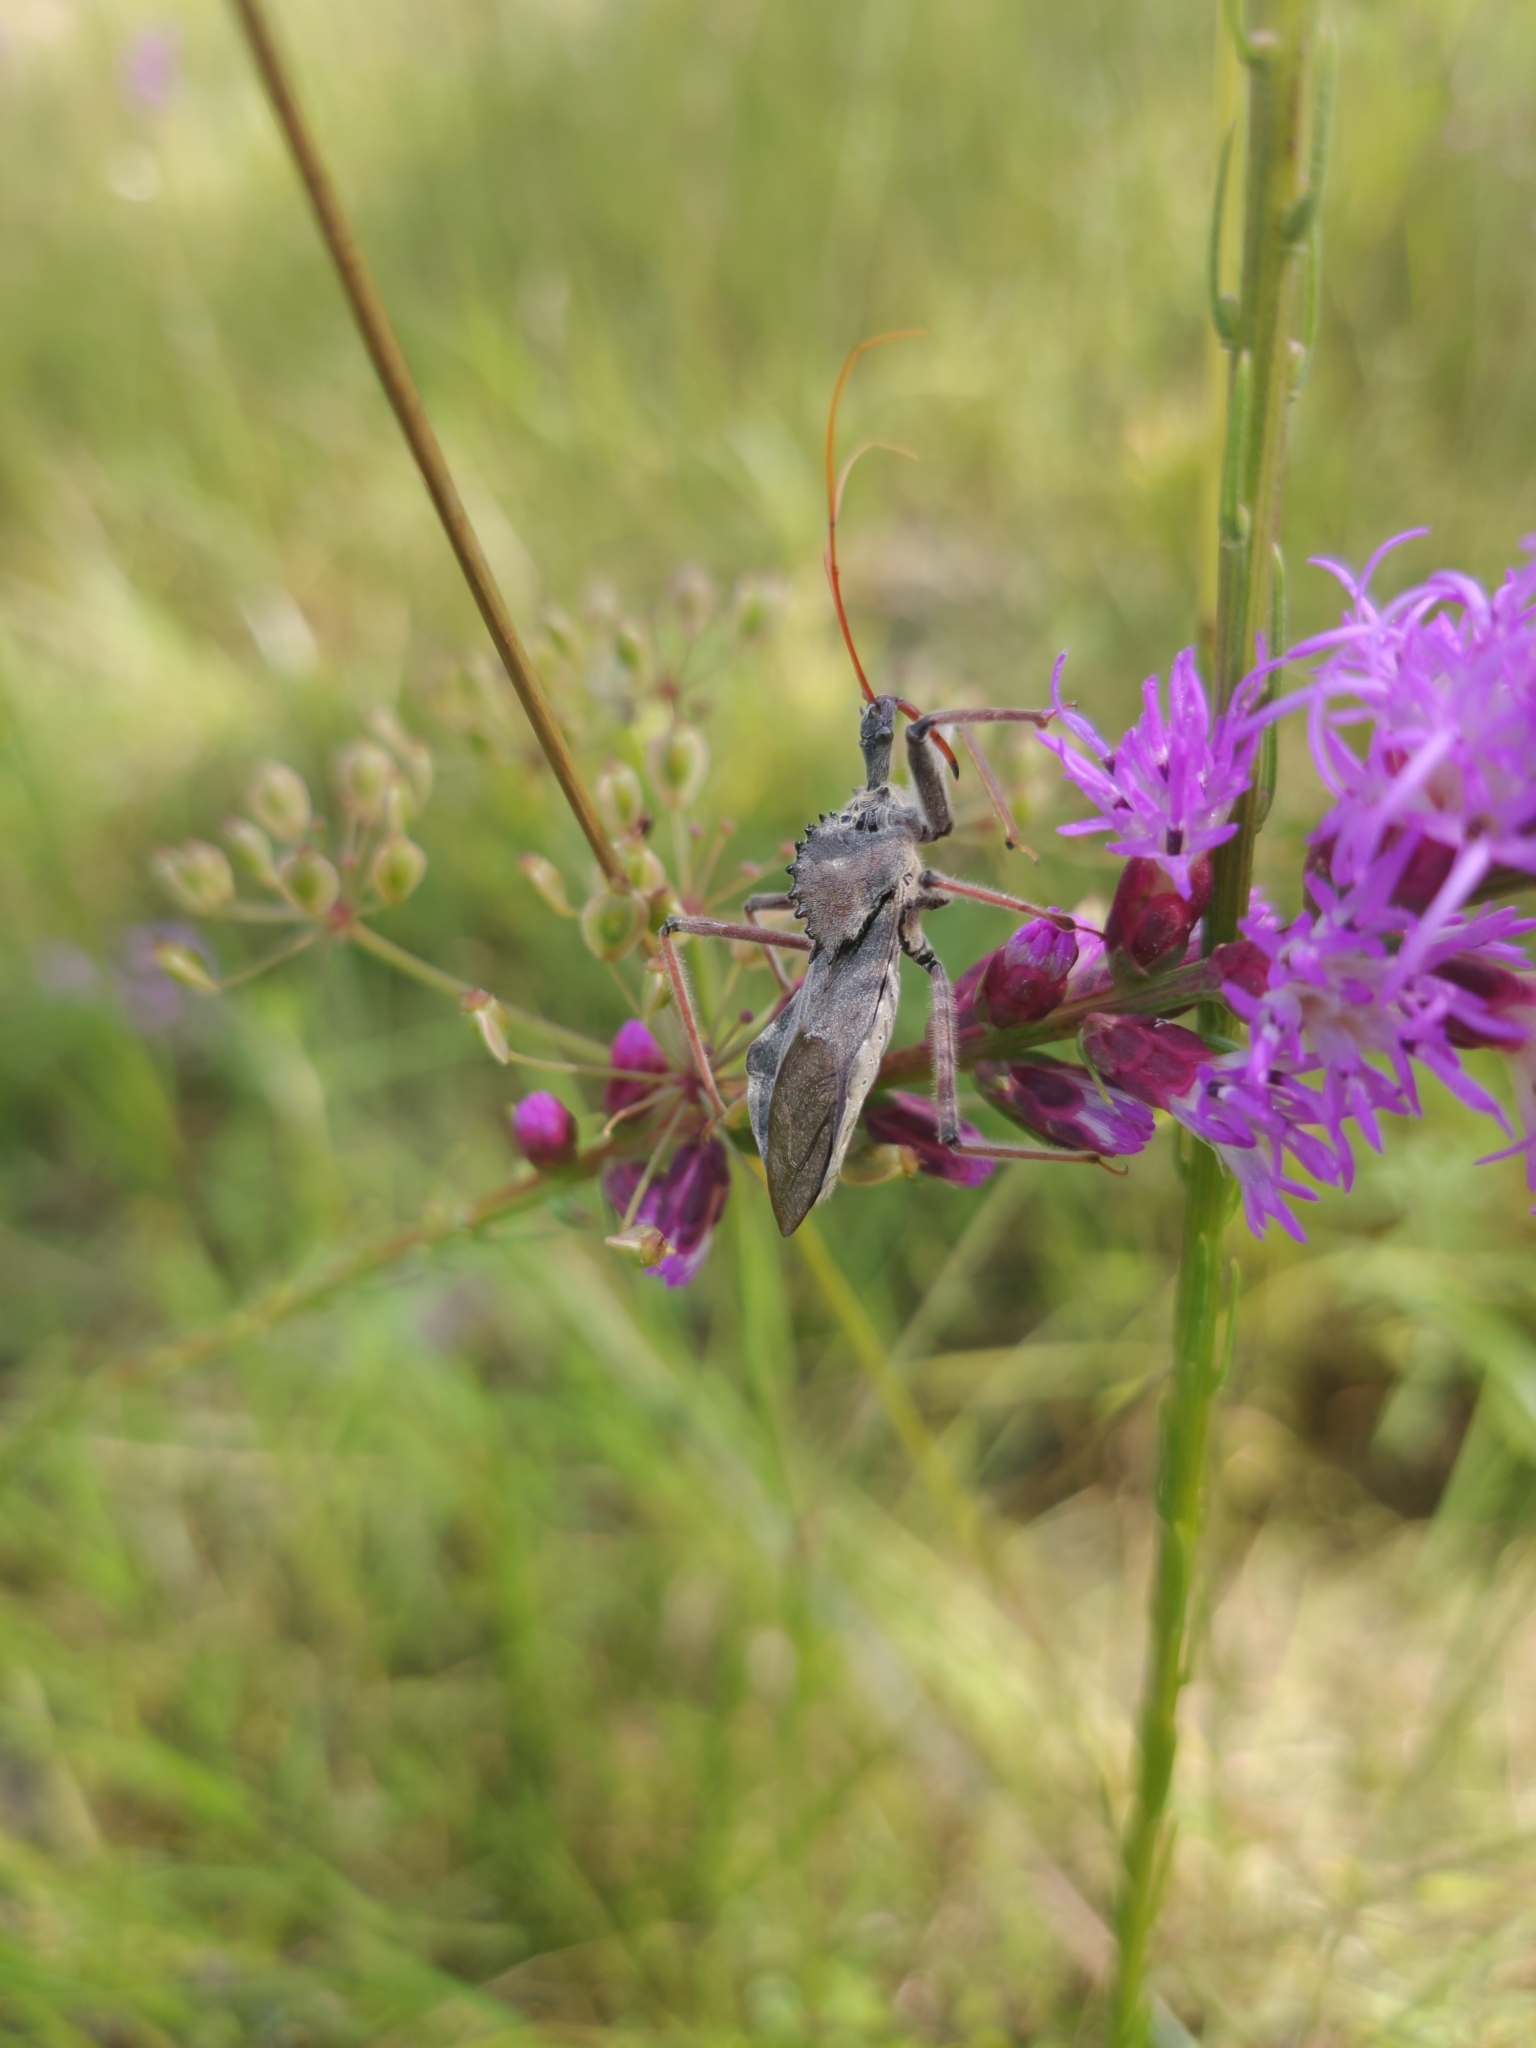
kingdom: Animalia
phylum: Arthropoda
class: Insecta
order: Hemiptera
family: Reduviidae
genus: Arilus
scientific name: Arilus cristatus
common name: North american wheel bug
